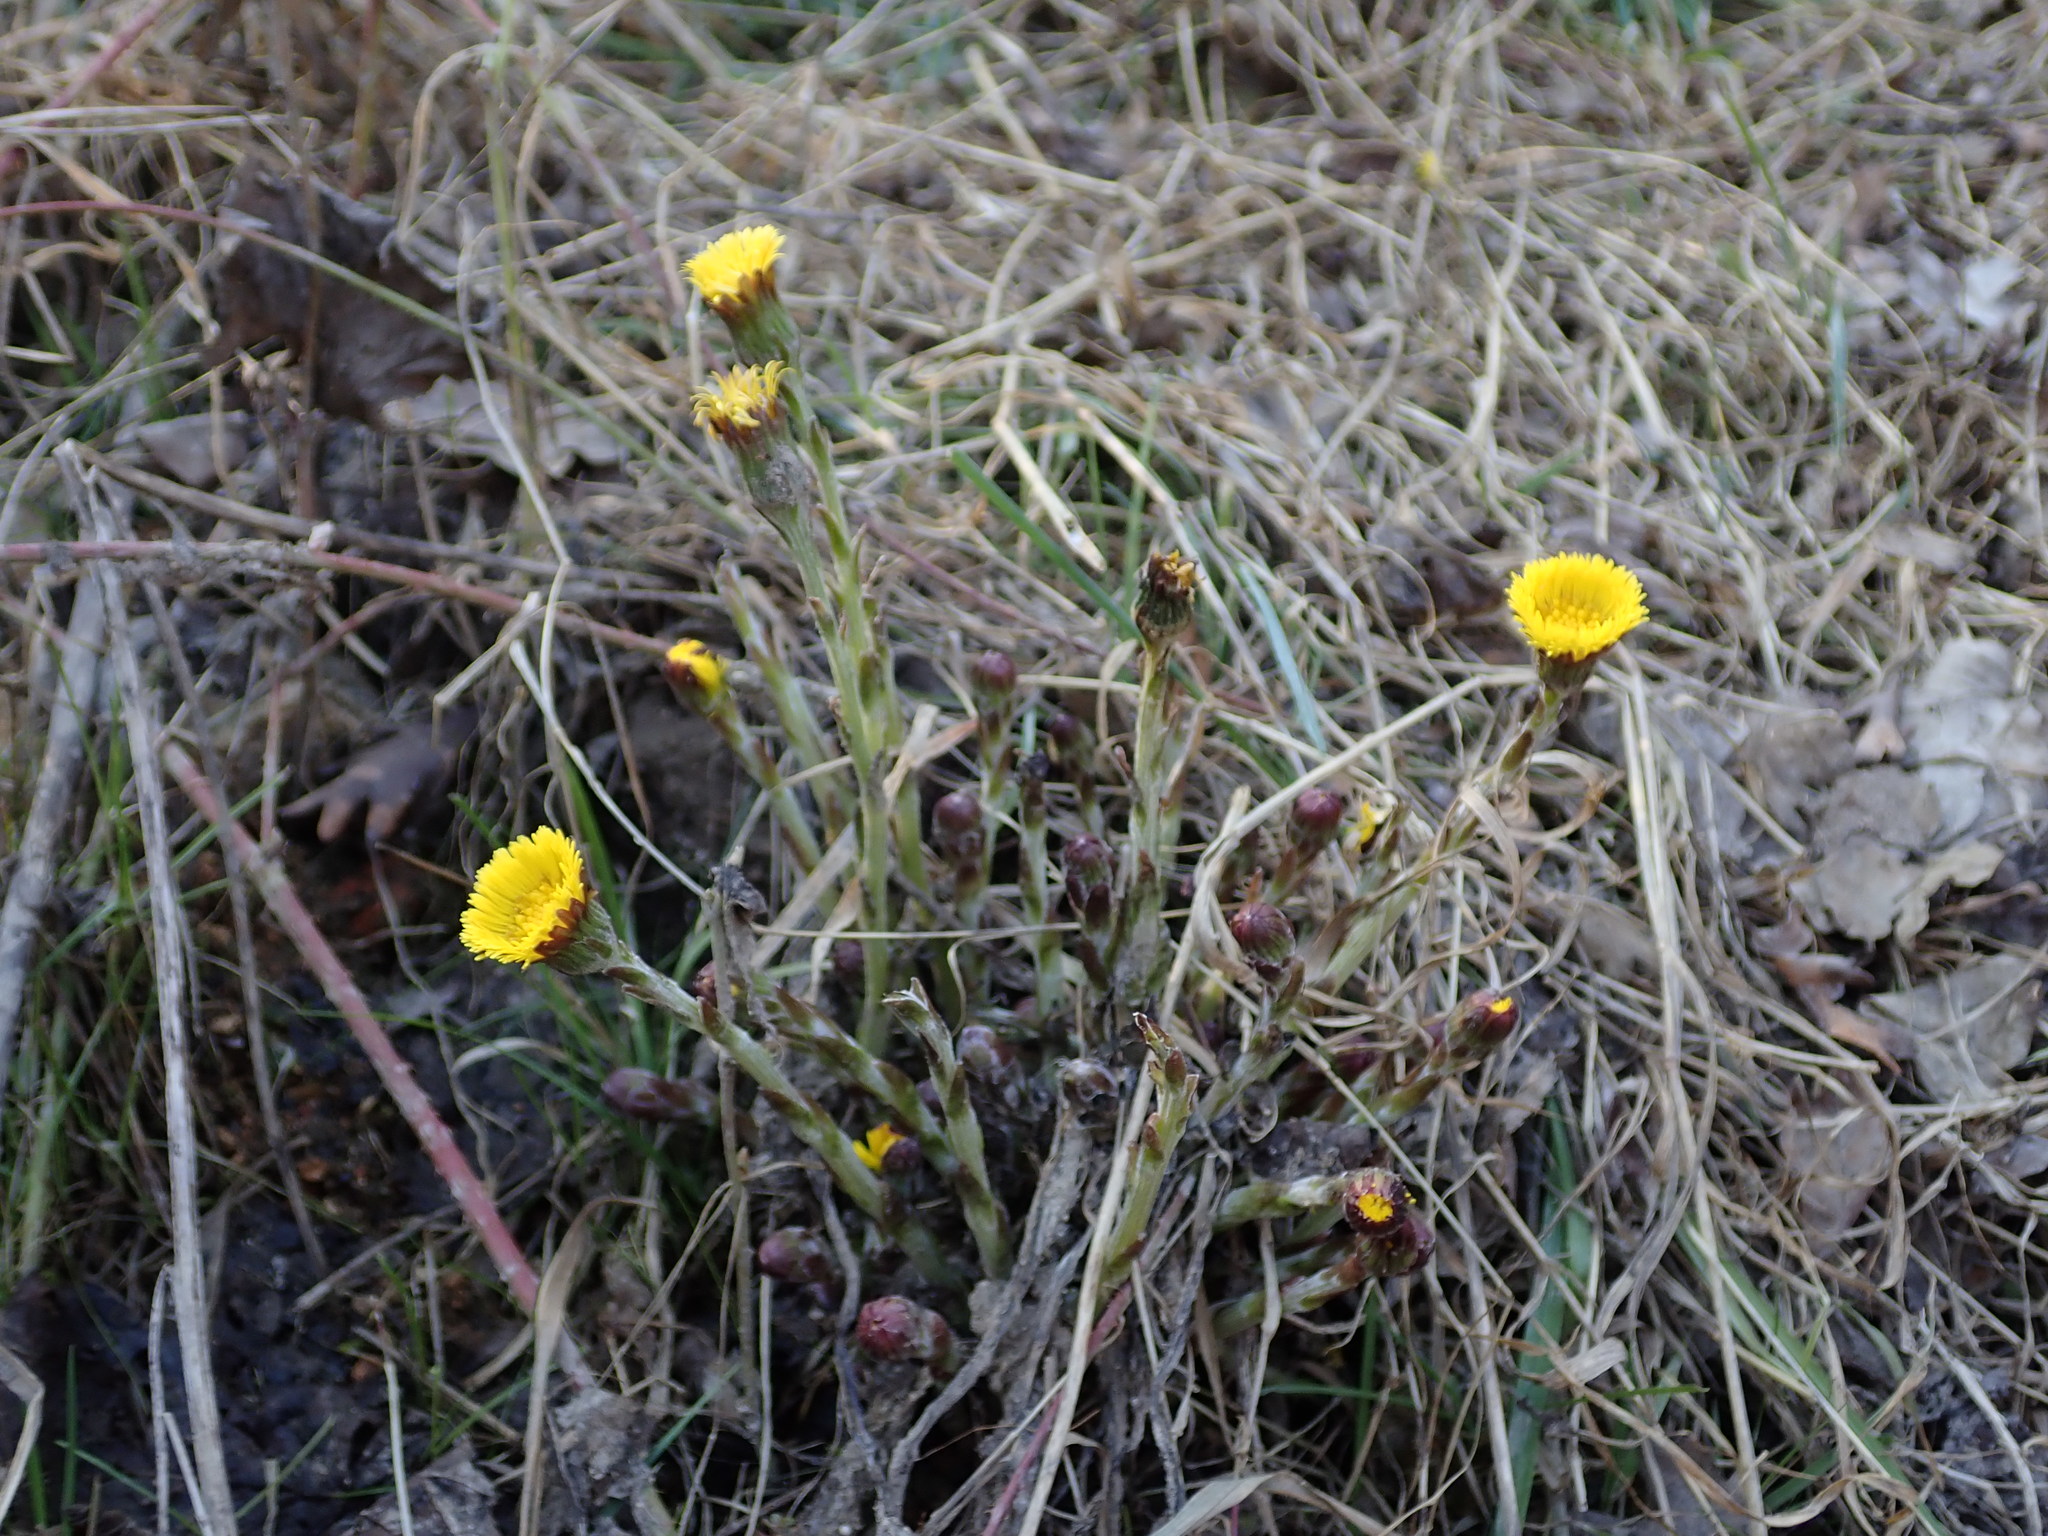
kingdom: Plantae
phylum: Tracheophyta
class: Magnoliopsida
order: Asterales
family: Asteraceae
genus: Tussilago
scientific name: Tussilago farfara
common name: Coltsfoot
